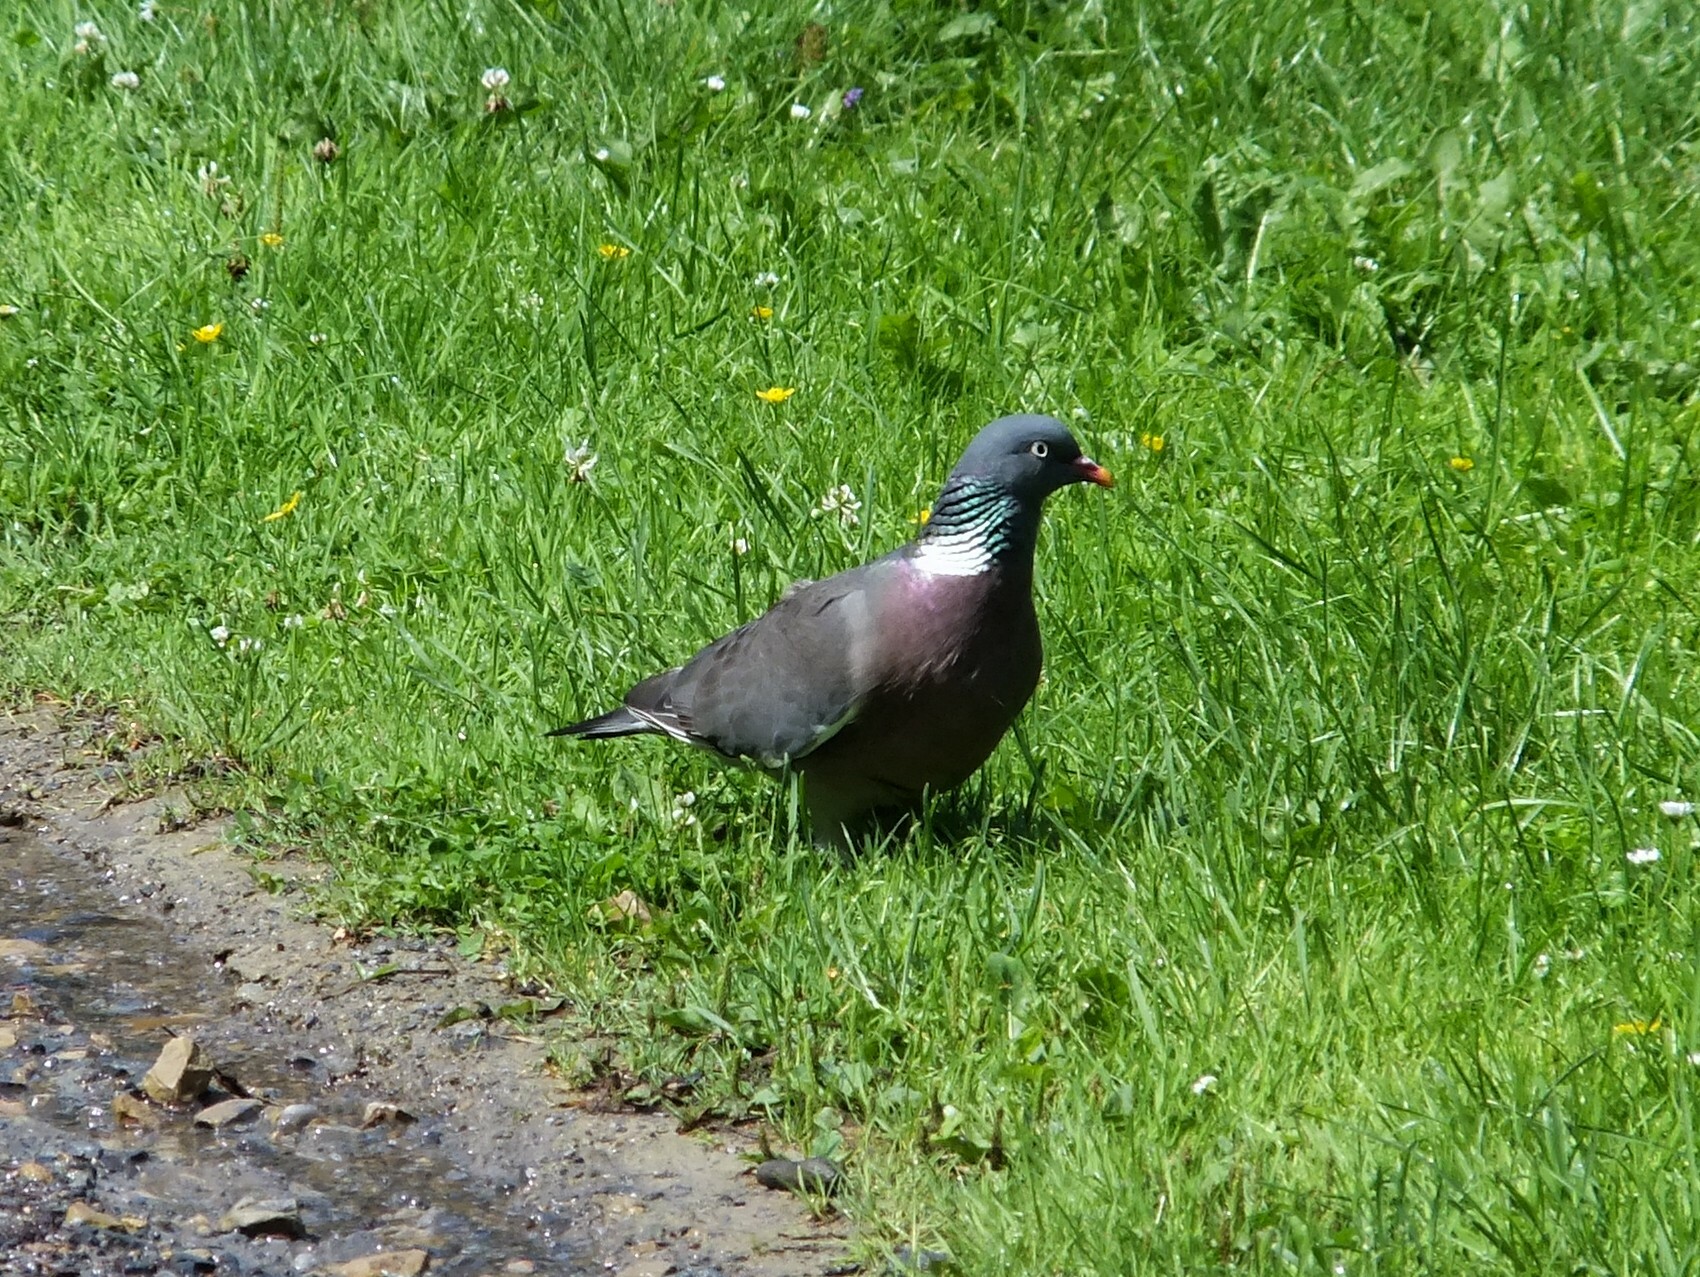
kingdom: Animalia
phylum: Chordata
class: Aves
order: Columbiformes
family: Columbidae
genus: Columba
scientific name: Columba palumbus
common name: Common wood pigeon
